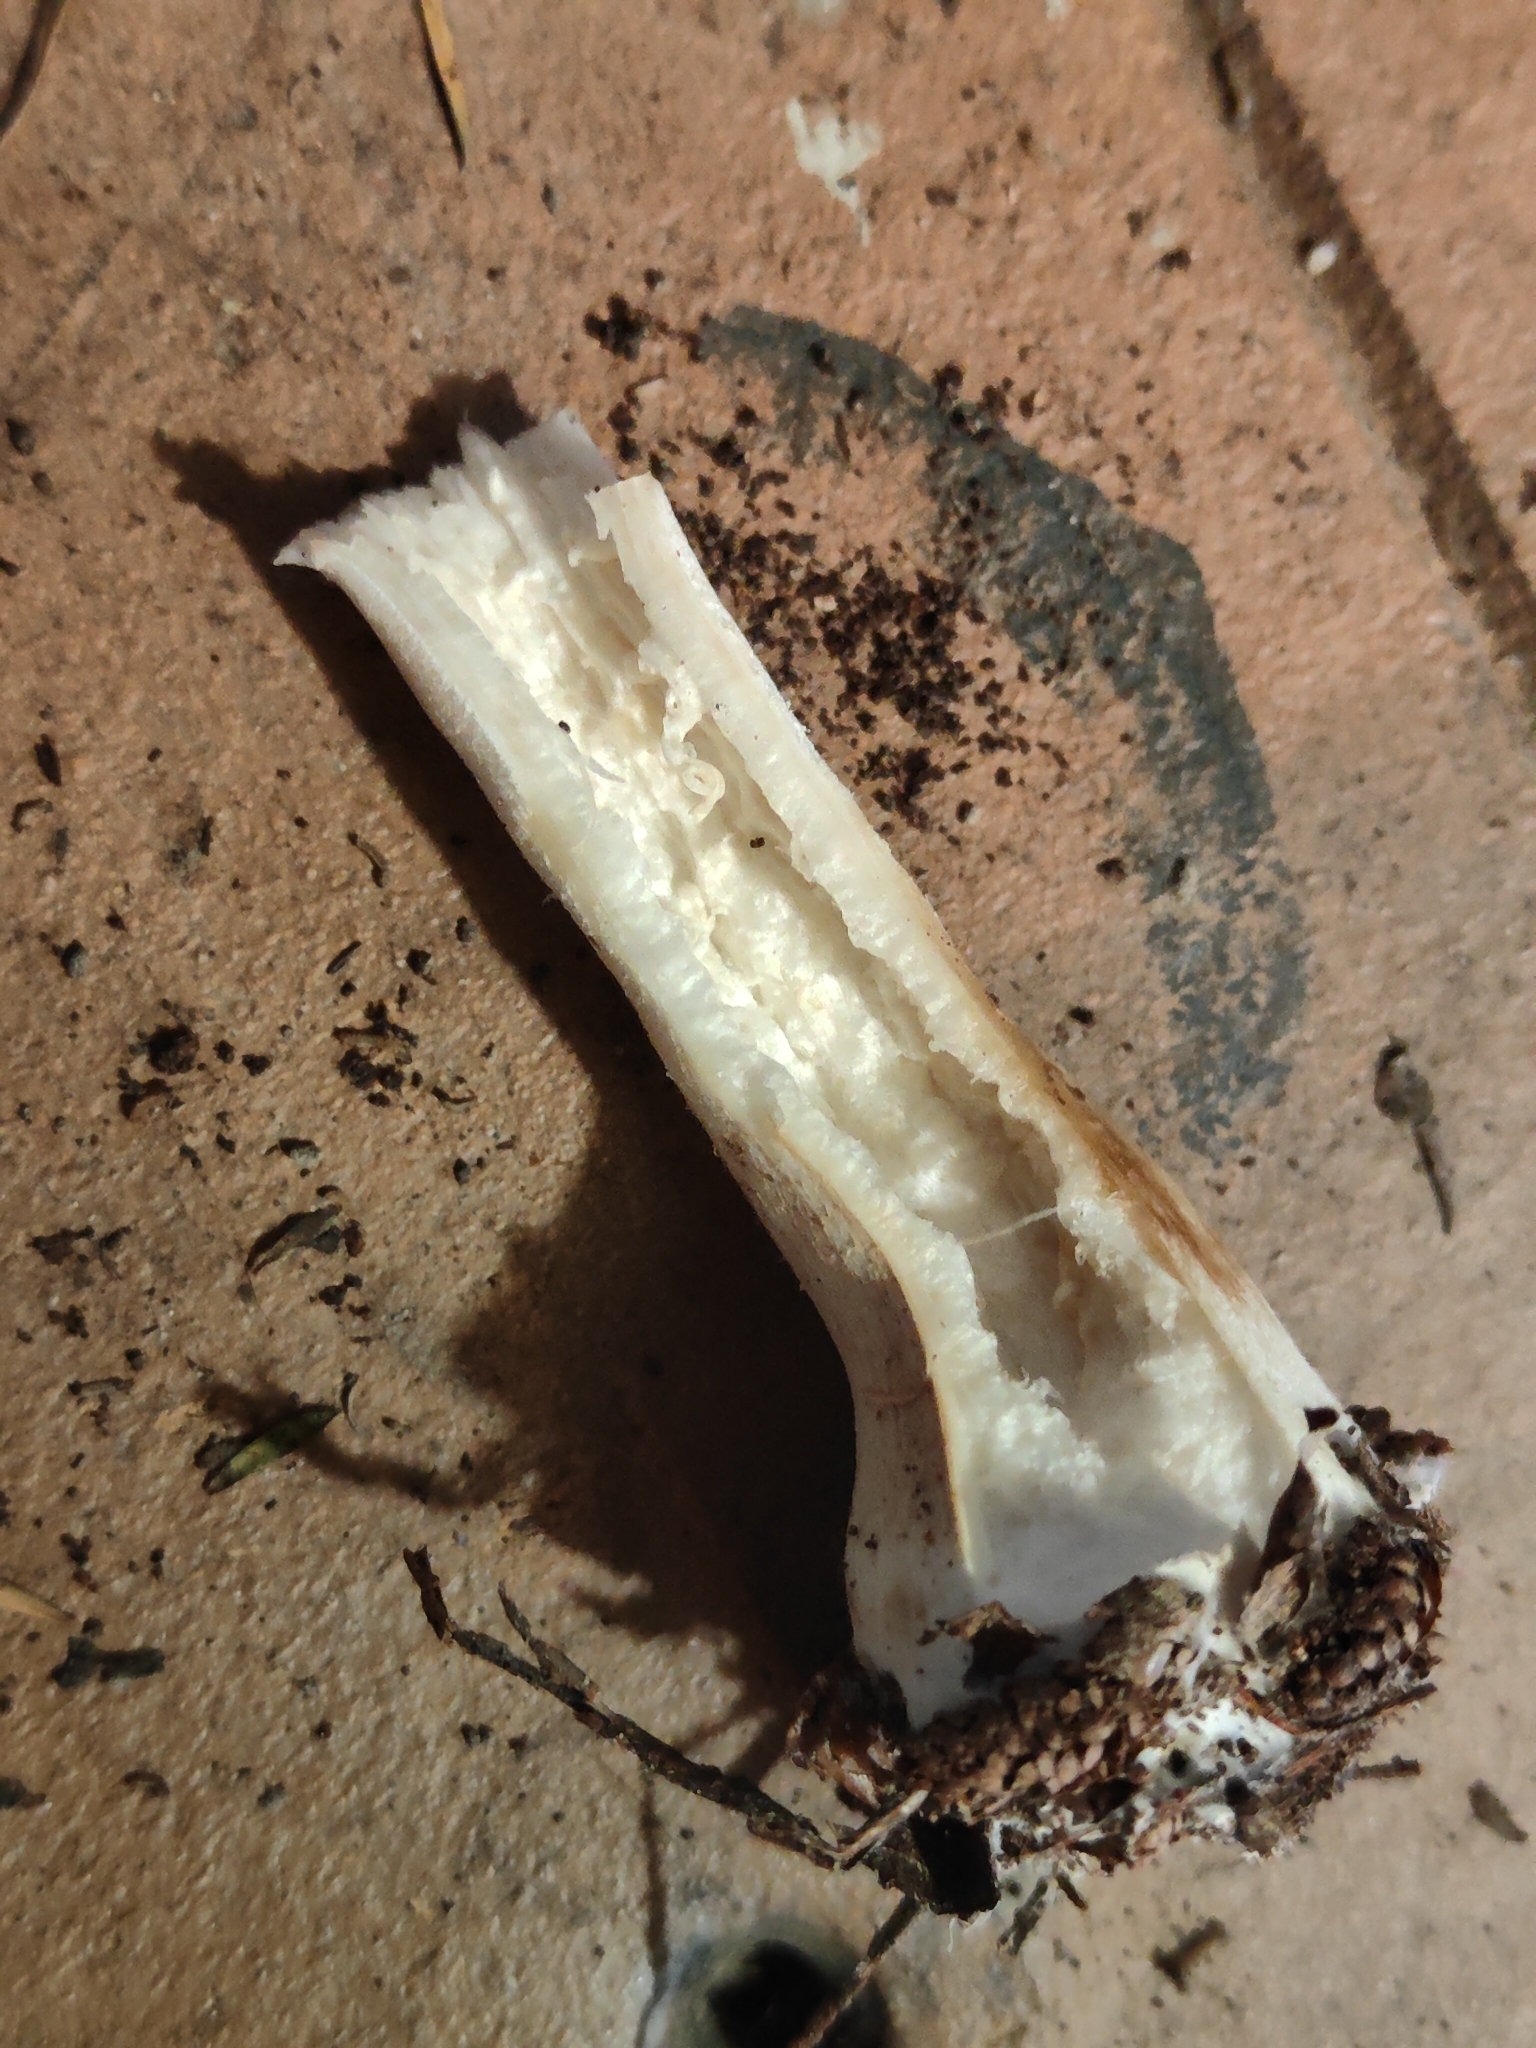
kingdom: Fungi
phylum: Basidiomycota
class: Agaricomycetes
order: Agaricales
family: Strophariaceae
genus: Agrocybe
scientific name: Agrocybe putaminum
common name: Mulch fieldcap
